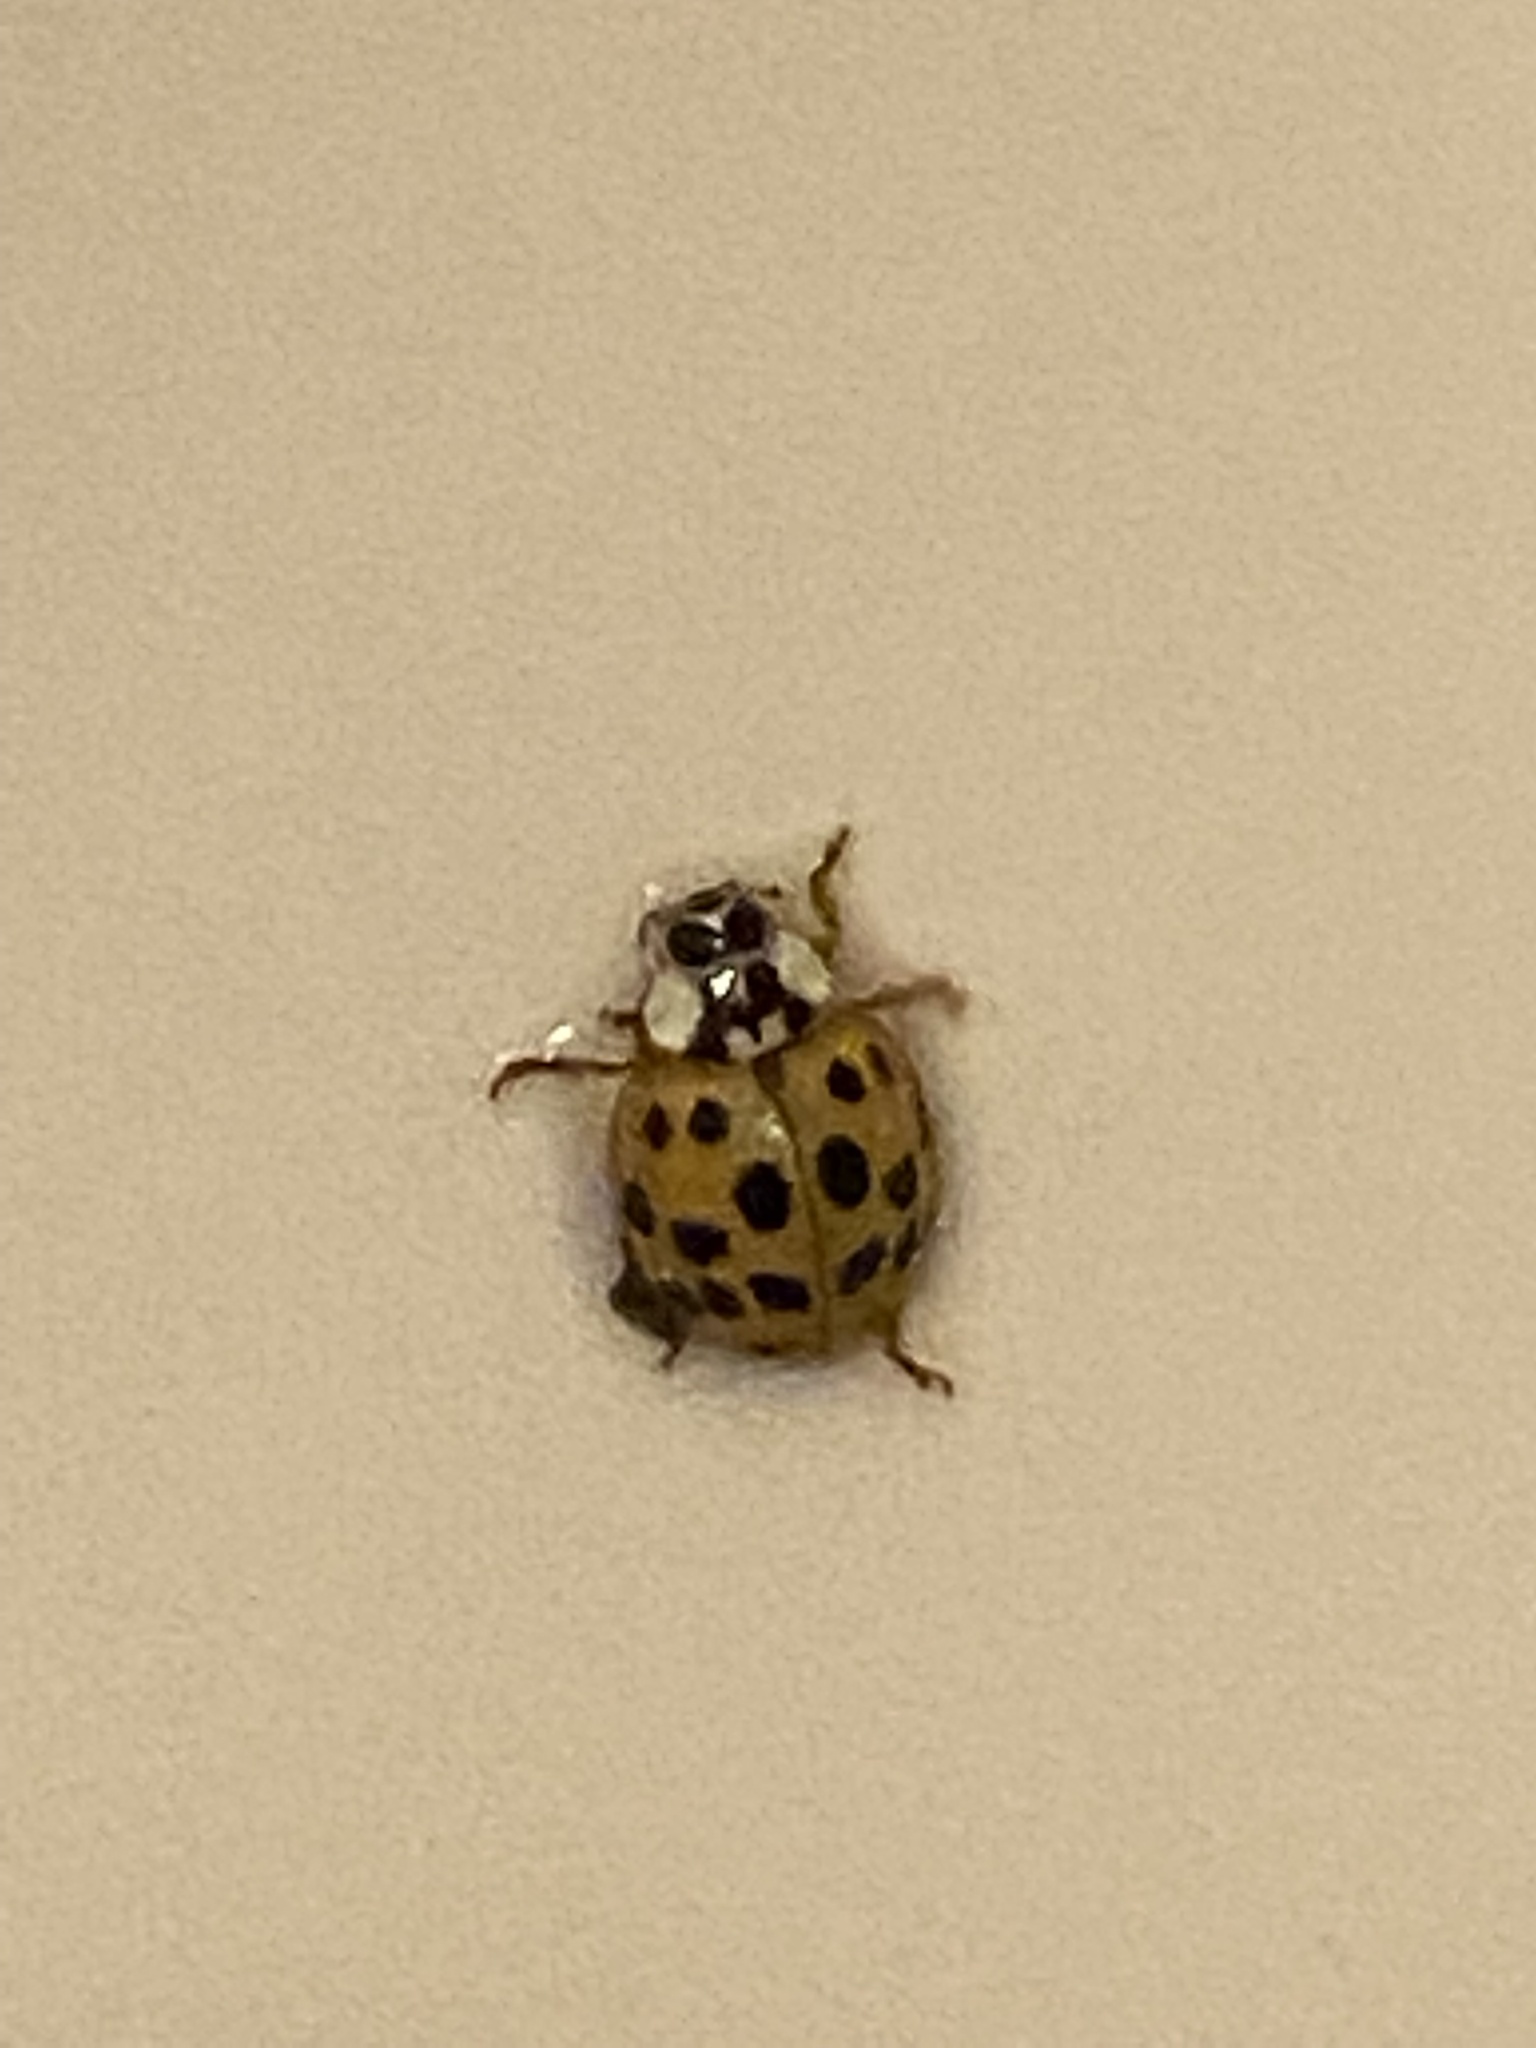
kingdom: Animalia
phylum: Arthropoda
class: Insecta
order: Coleoptera
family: Coccinellidae
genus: Harmonia
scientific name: Harmonia axyridis
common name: Harlequin ladybird
